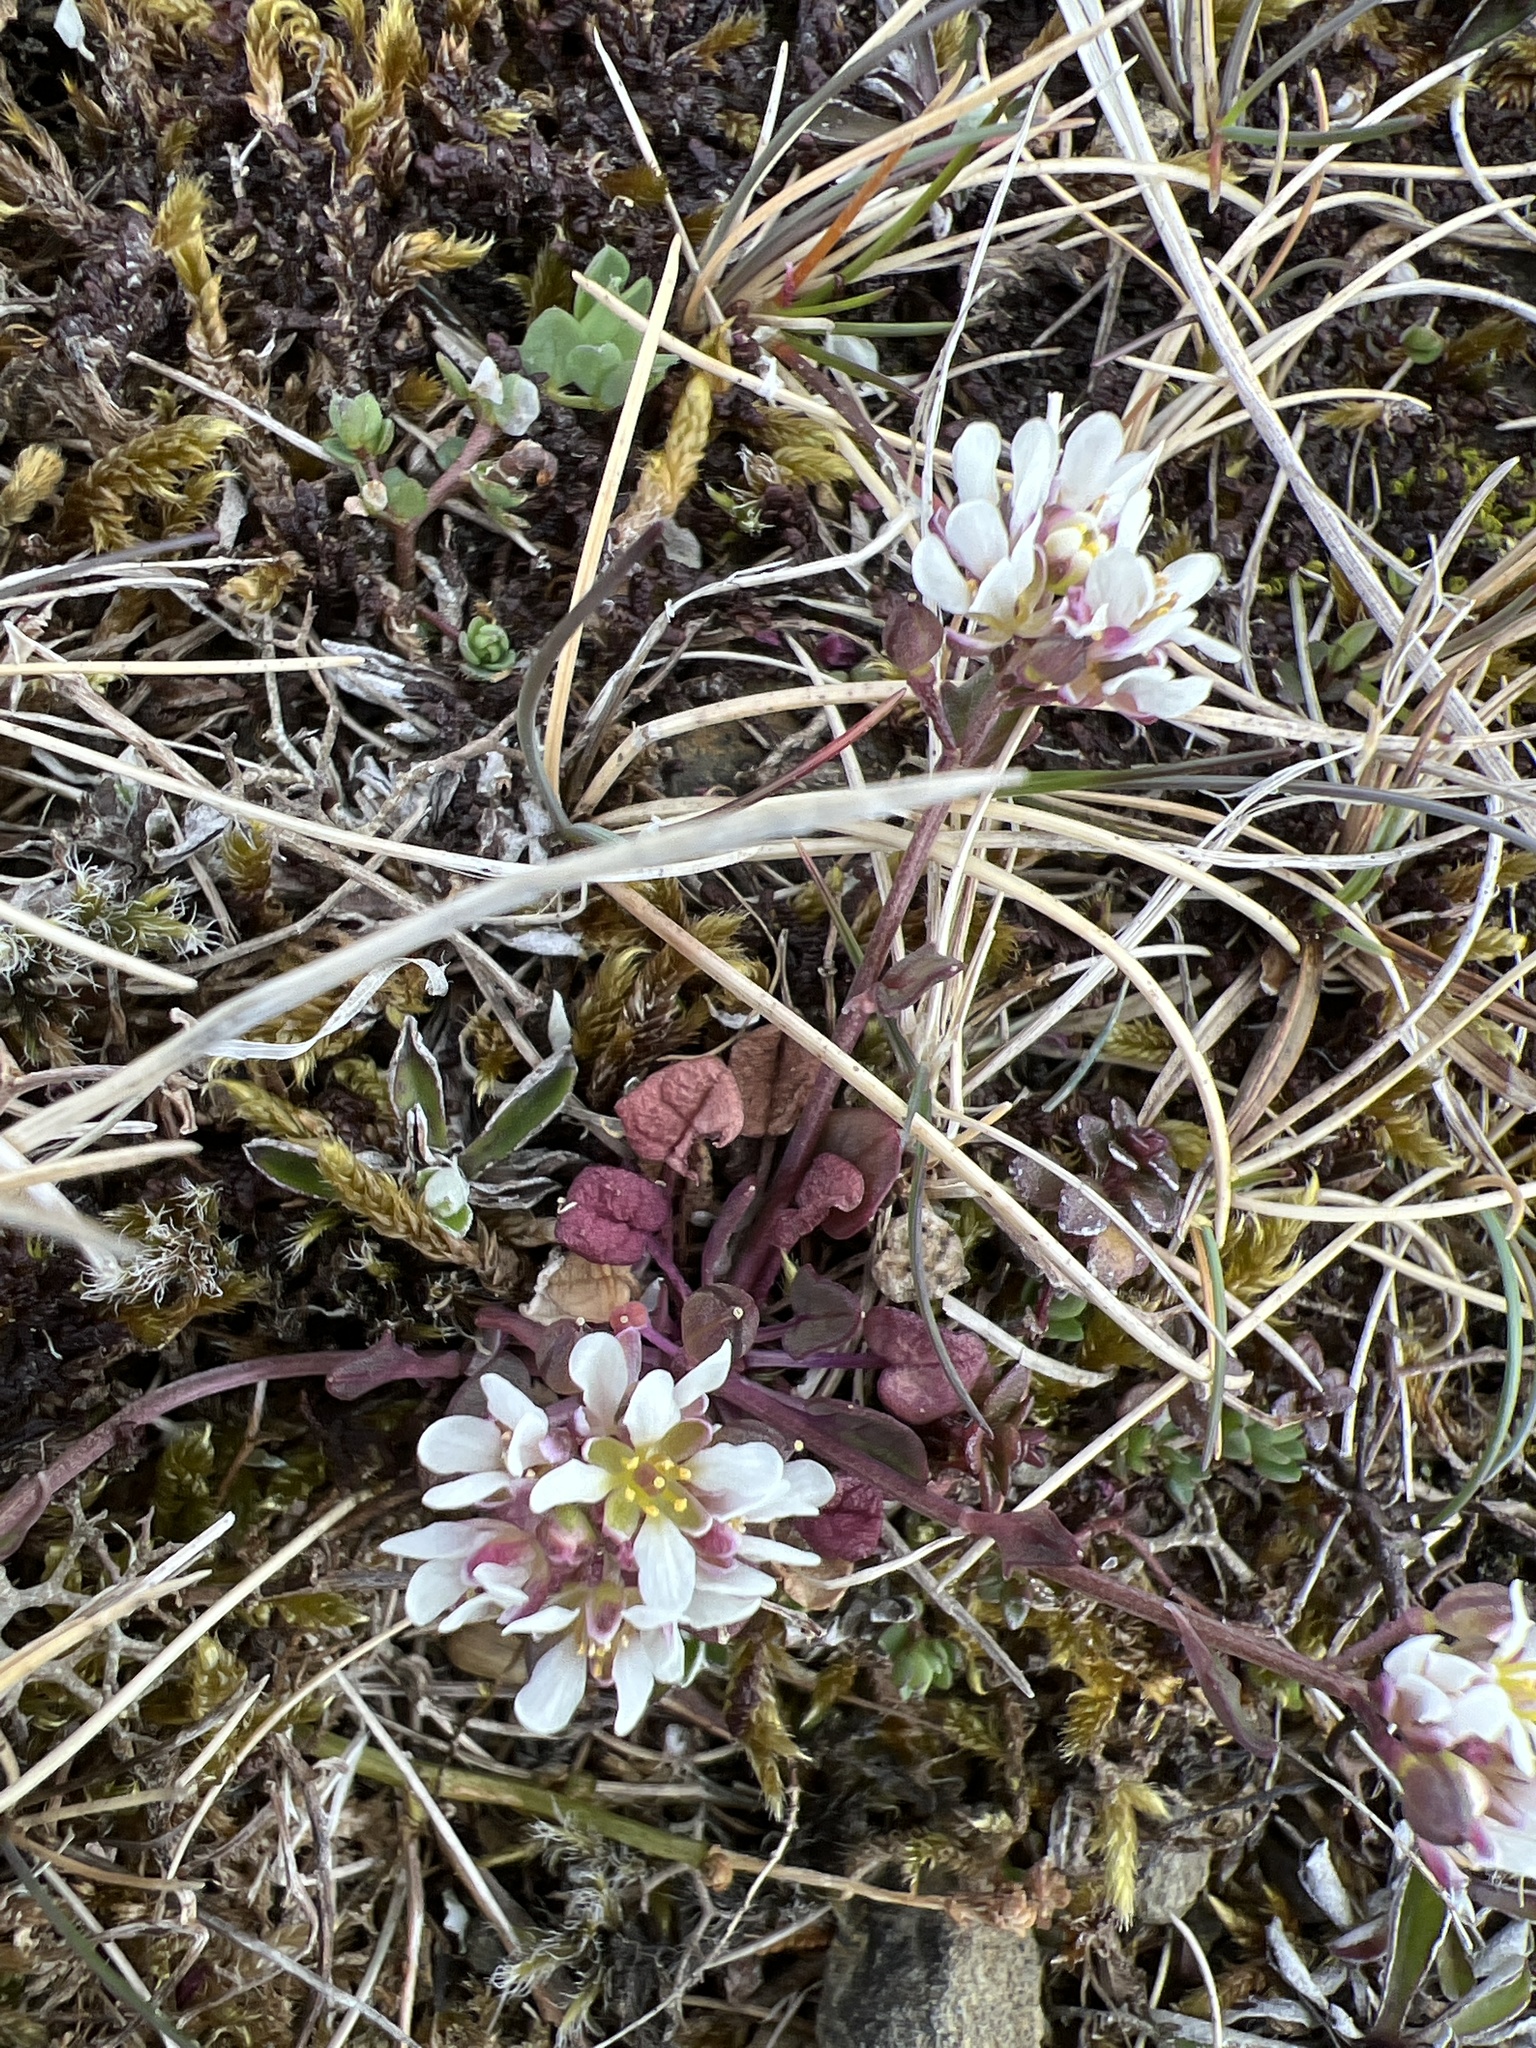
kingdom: Plantae
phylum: Tracheophyta
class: Magnoliopsida
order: Brassicales
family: Brassicaceae
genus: Cochlearia
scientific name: Cochlearia officinalis
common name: Scurvy-grass
